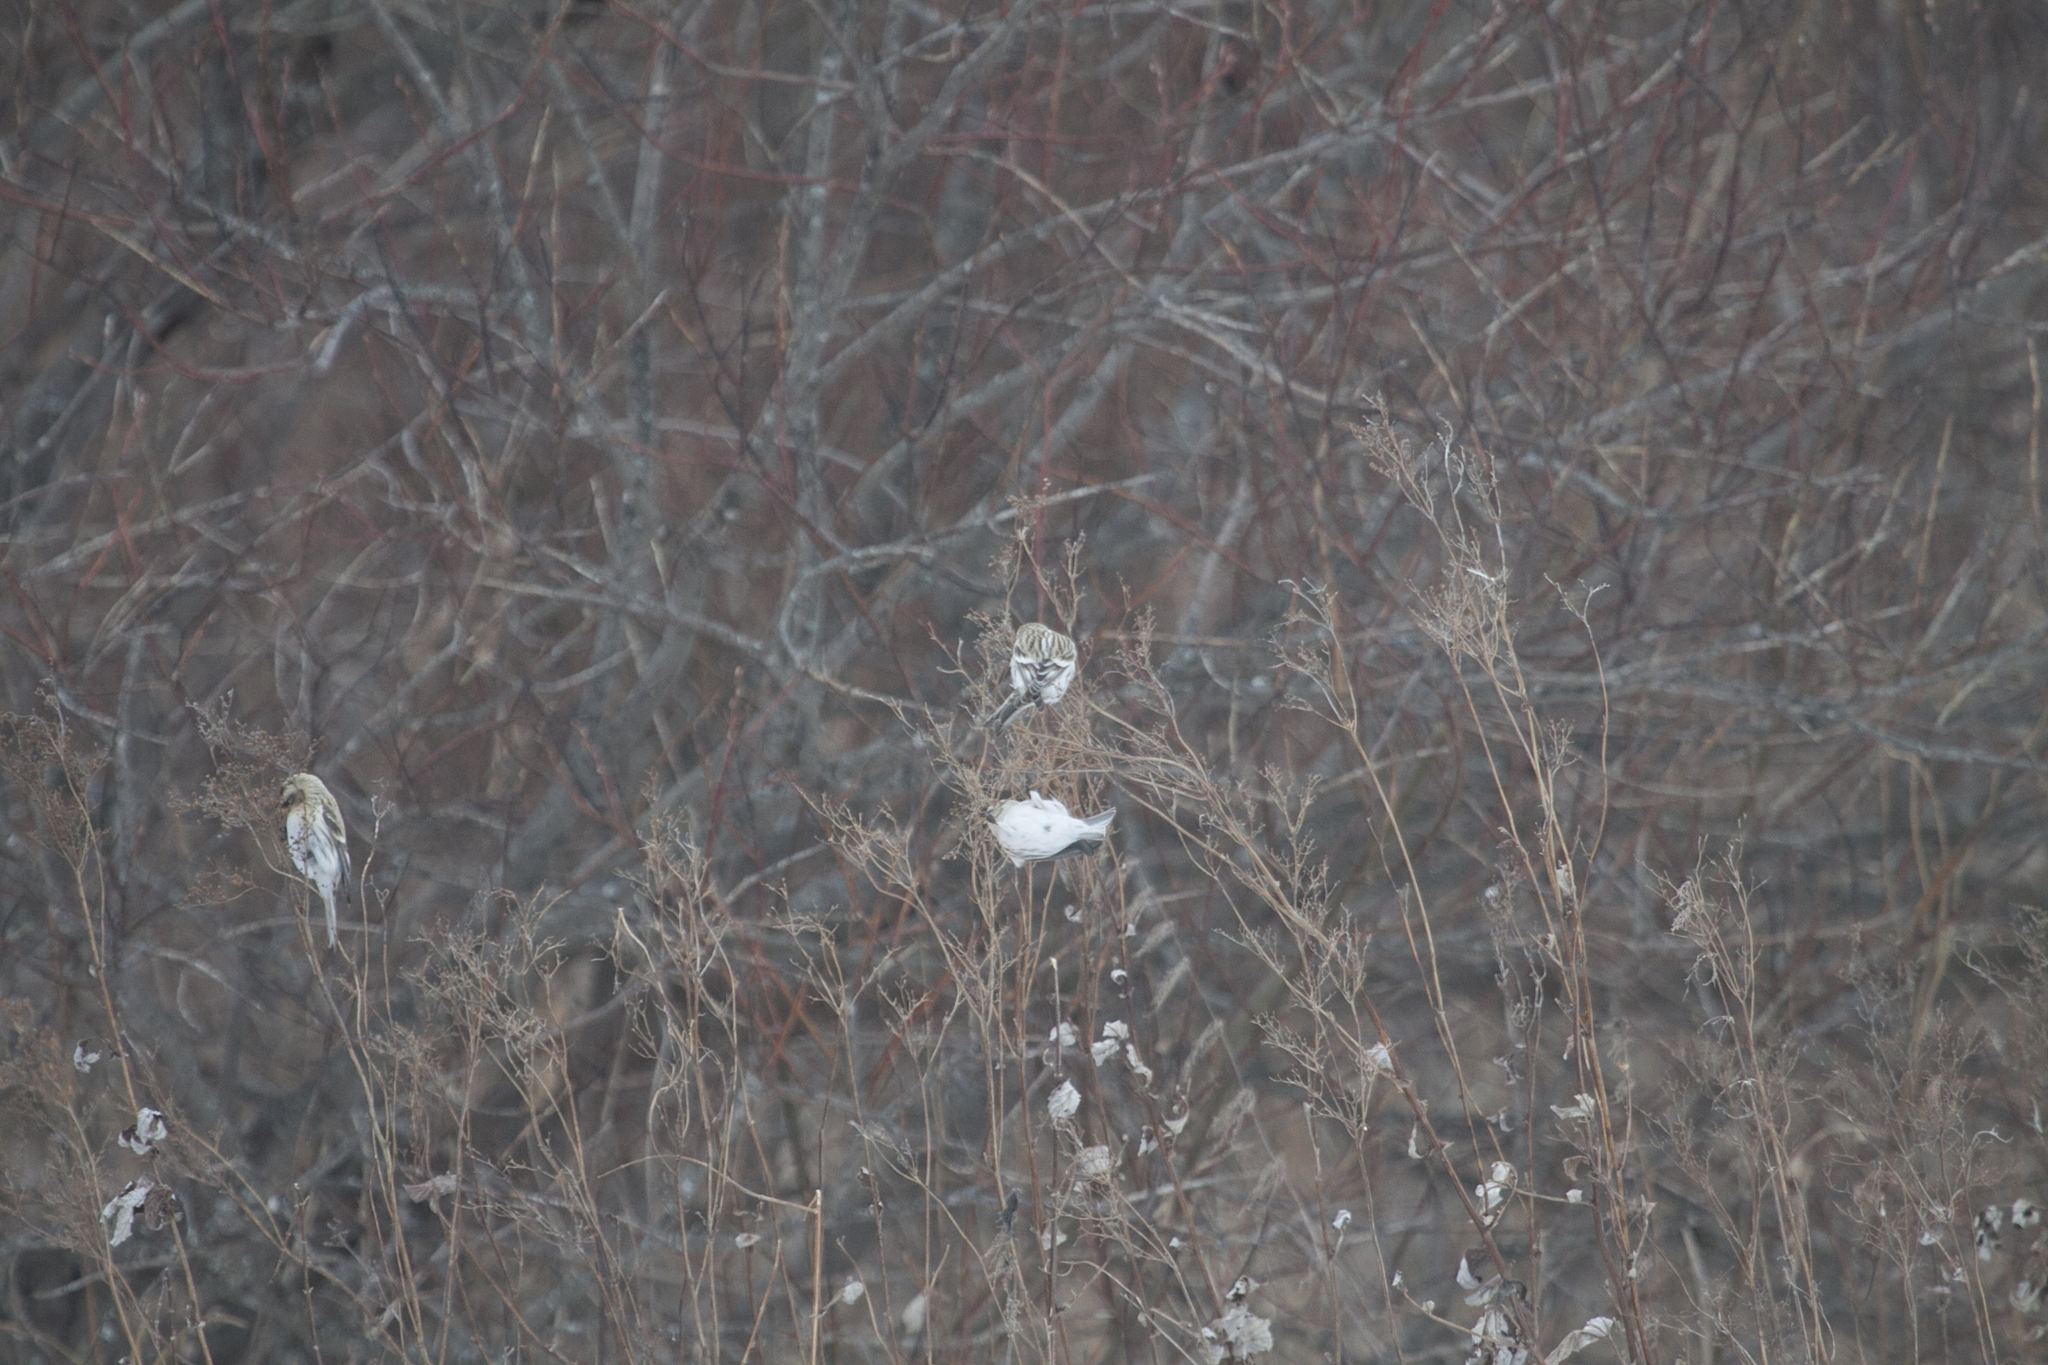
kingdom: Animalia
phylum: Chordata
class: Aves
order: Passeriformes
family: Fringillidae
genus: Acanthis
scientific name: Acanthis flammea
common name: Common redpoll
